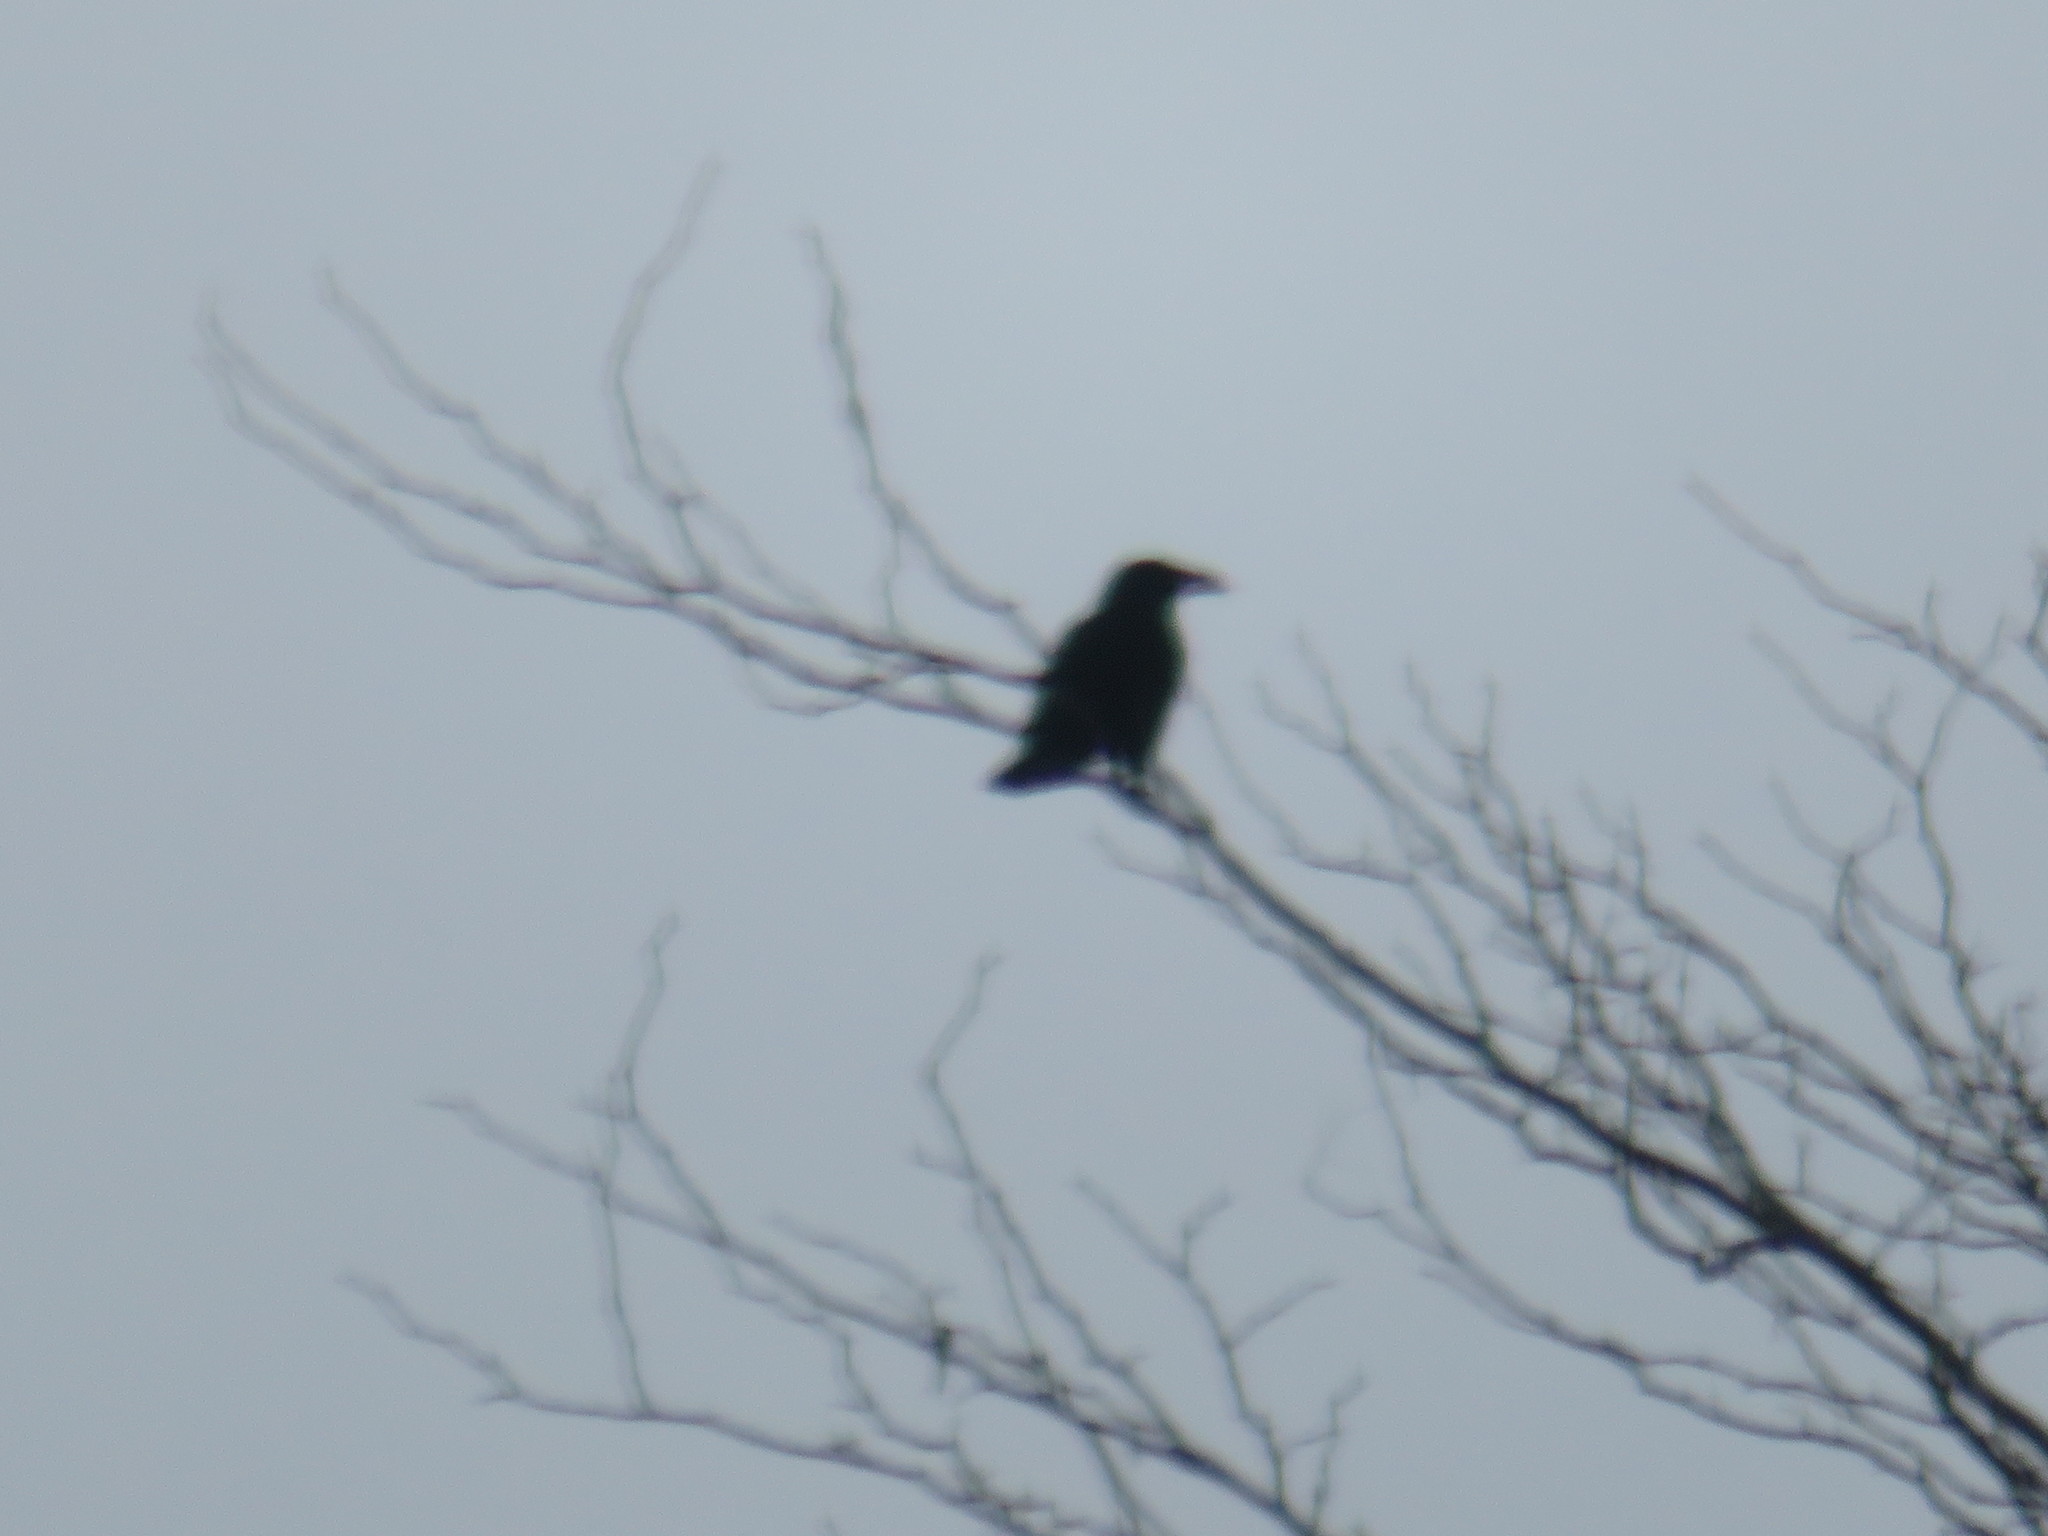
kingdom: Animalia
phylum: Chordata
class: Aves
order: Passeriformes
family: Corvidae
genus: Corvus
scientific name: Corvus brachyrhynchos
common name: American crow
